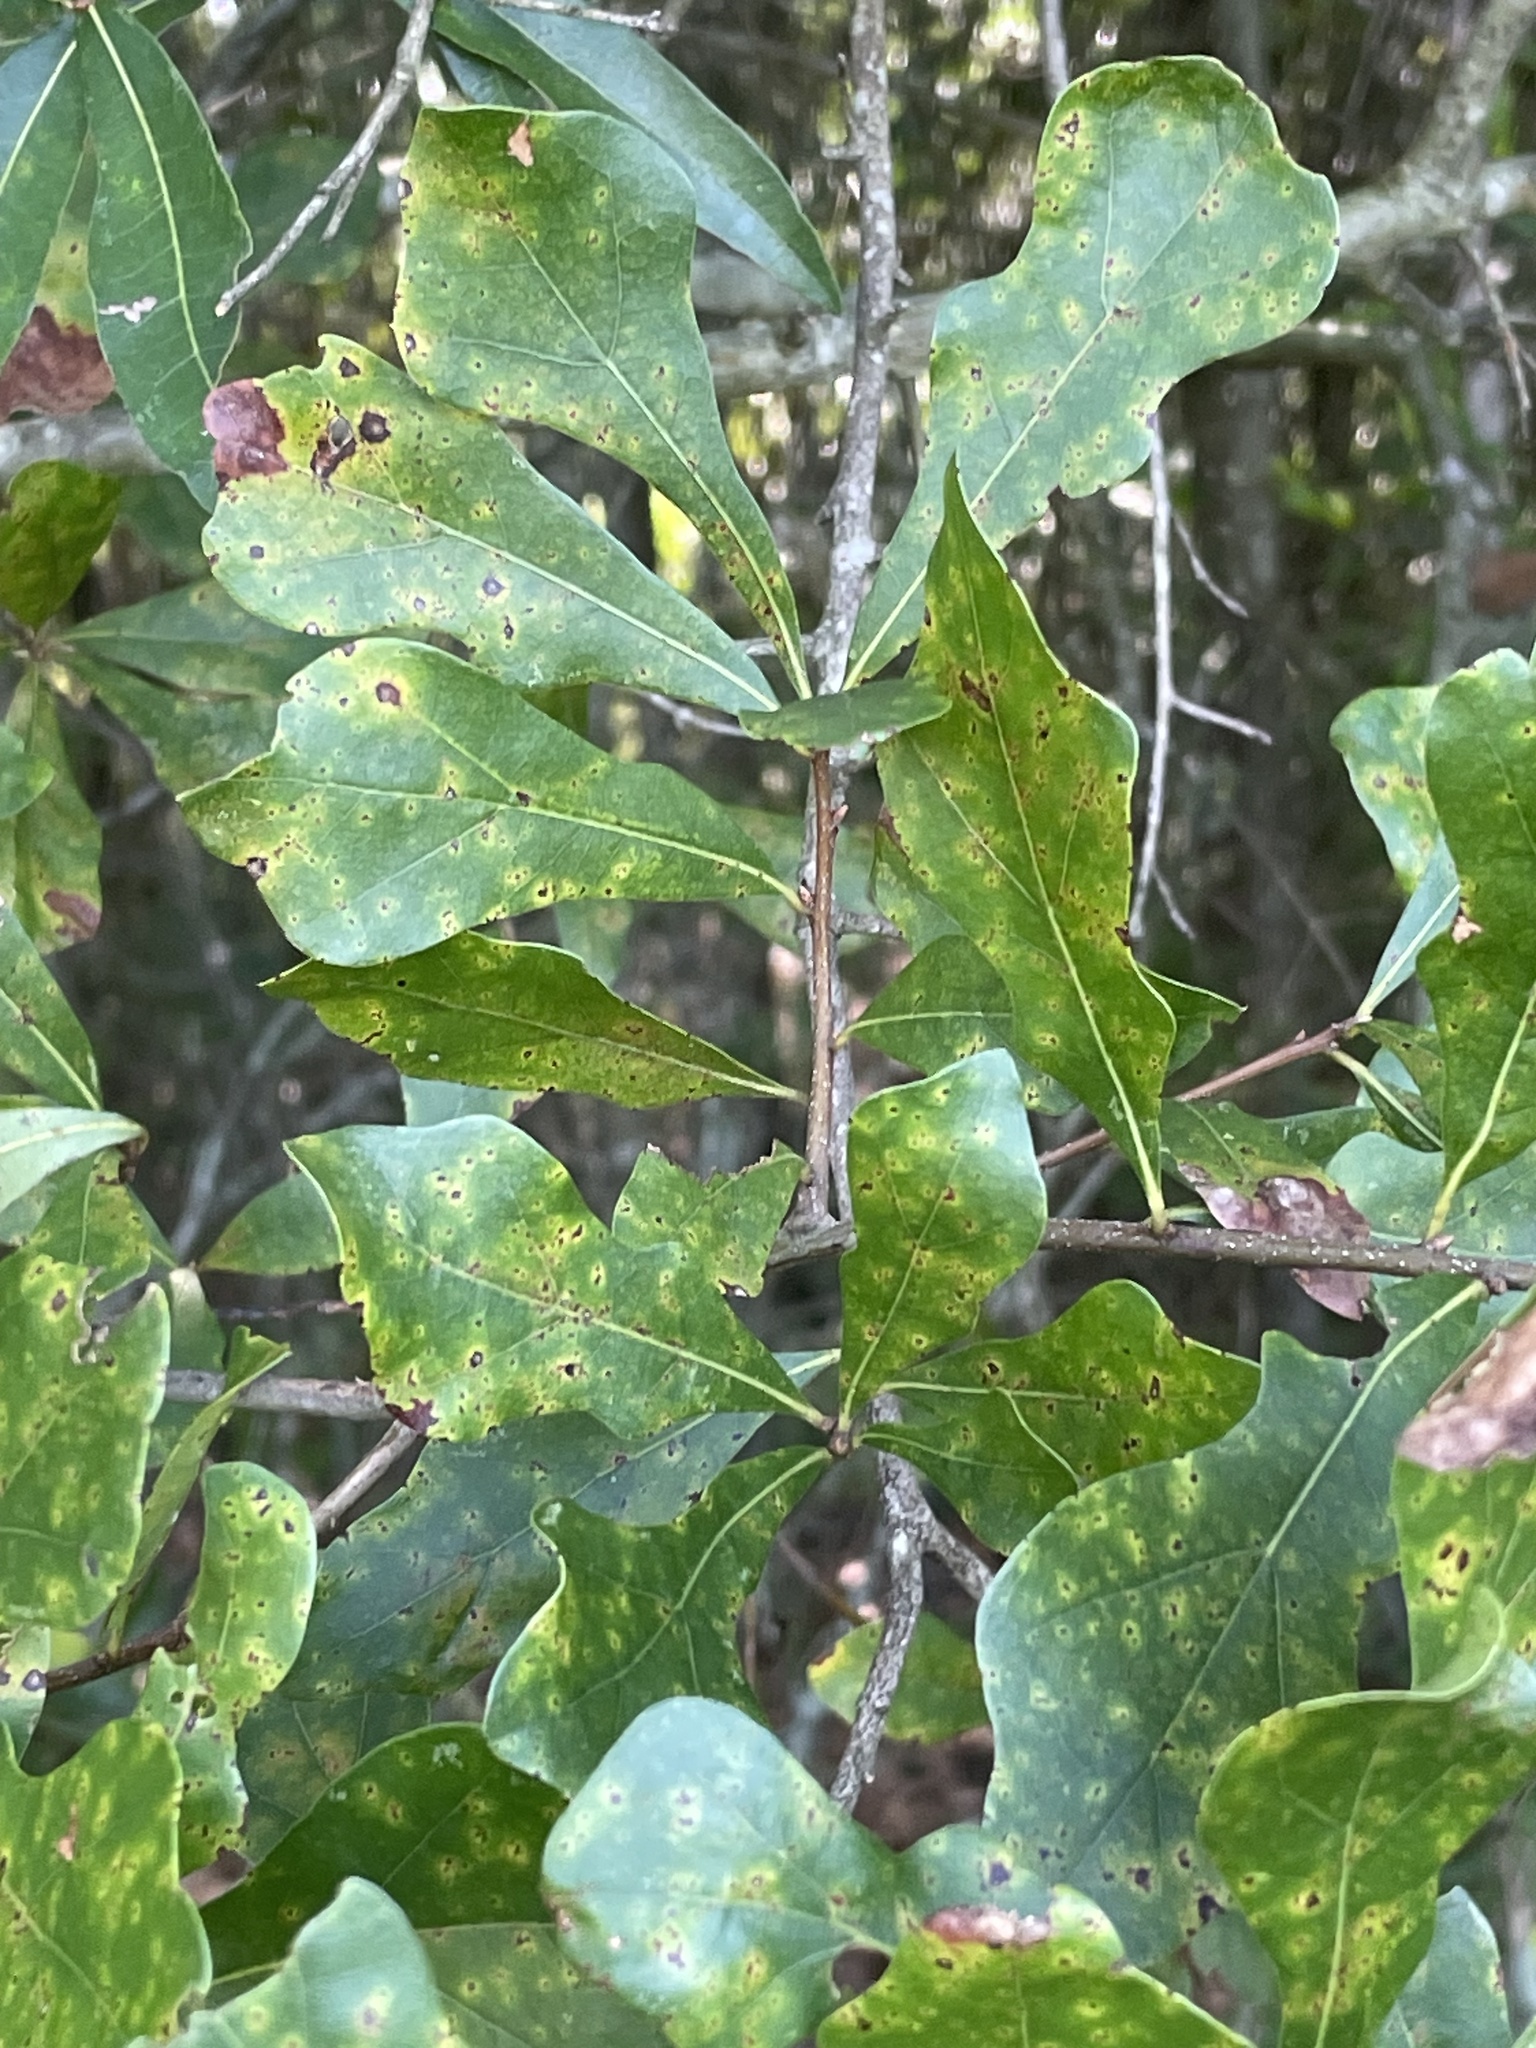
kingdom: Plantae
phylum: Tracheophyta
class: Magnoliopsida
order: Fagales
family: Fagaceae
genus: Quercus
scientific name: Quercus nigra
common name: Water oak
